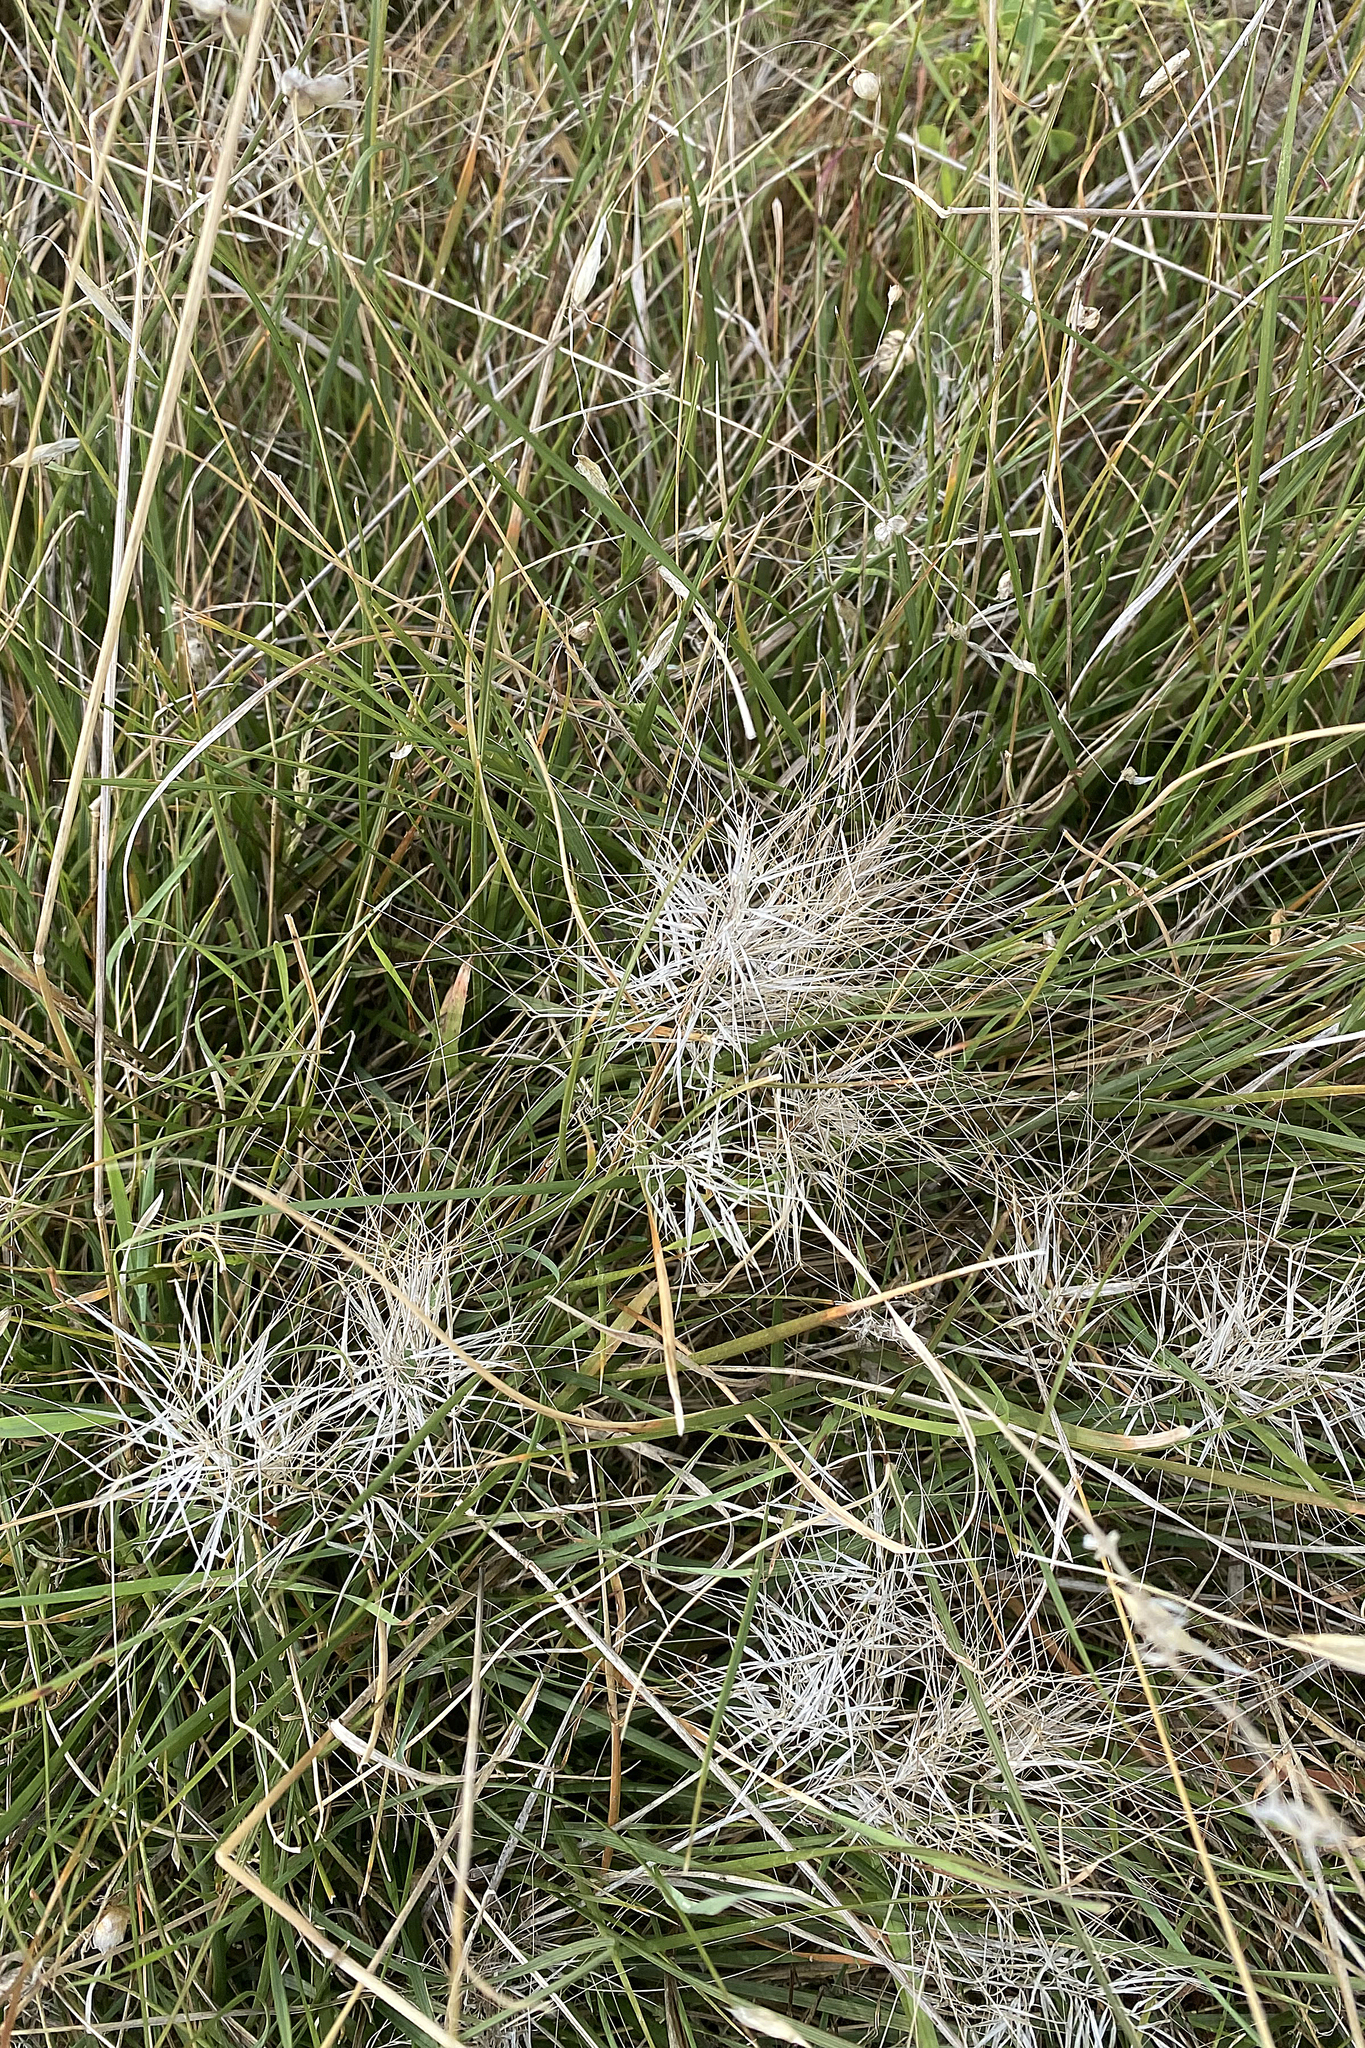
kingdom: Plantae
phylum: Tracheophyta
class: Liliopsida
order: Poales
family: Poaceae
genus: Aristida
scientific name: Aristida behriana
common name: Long-awn wire grass
